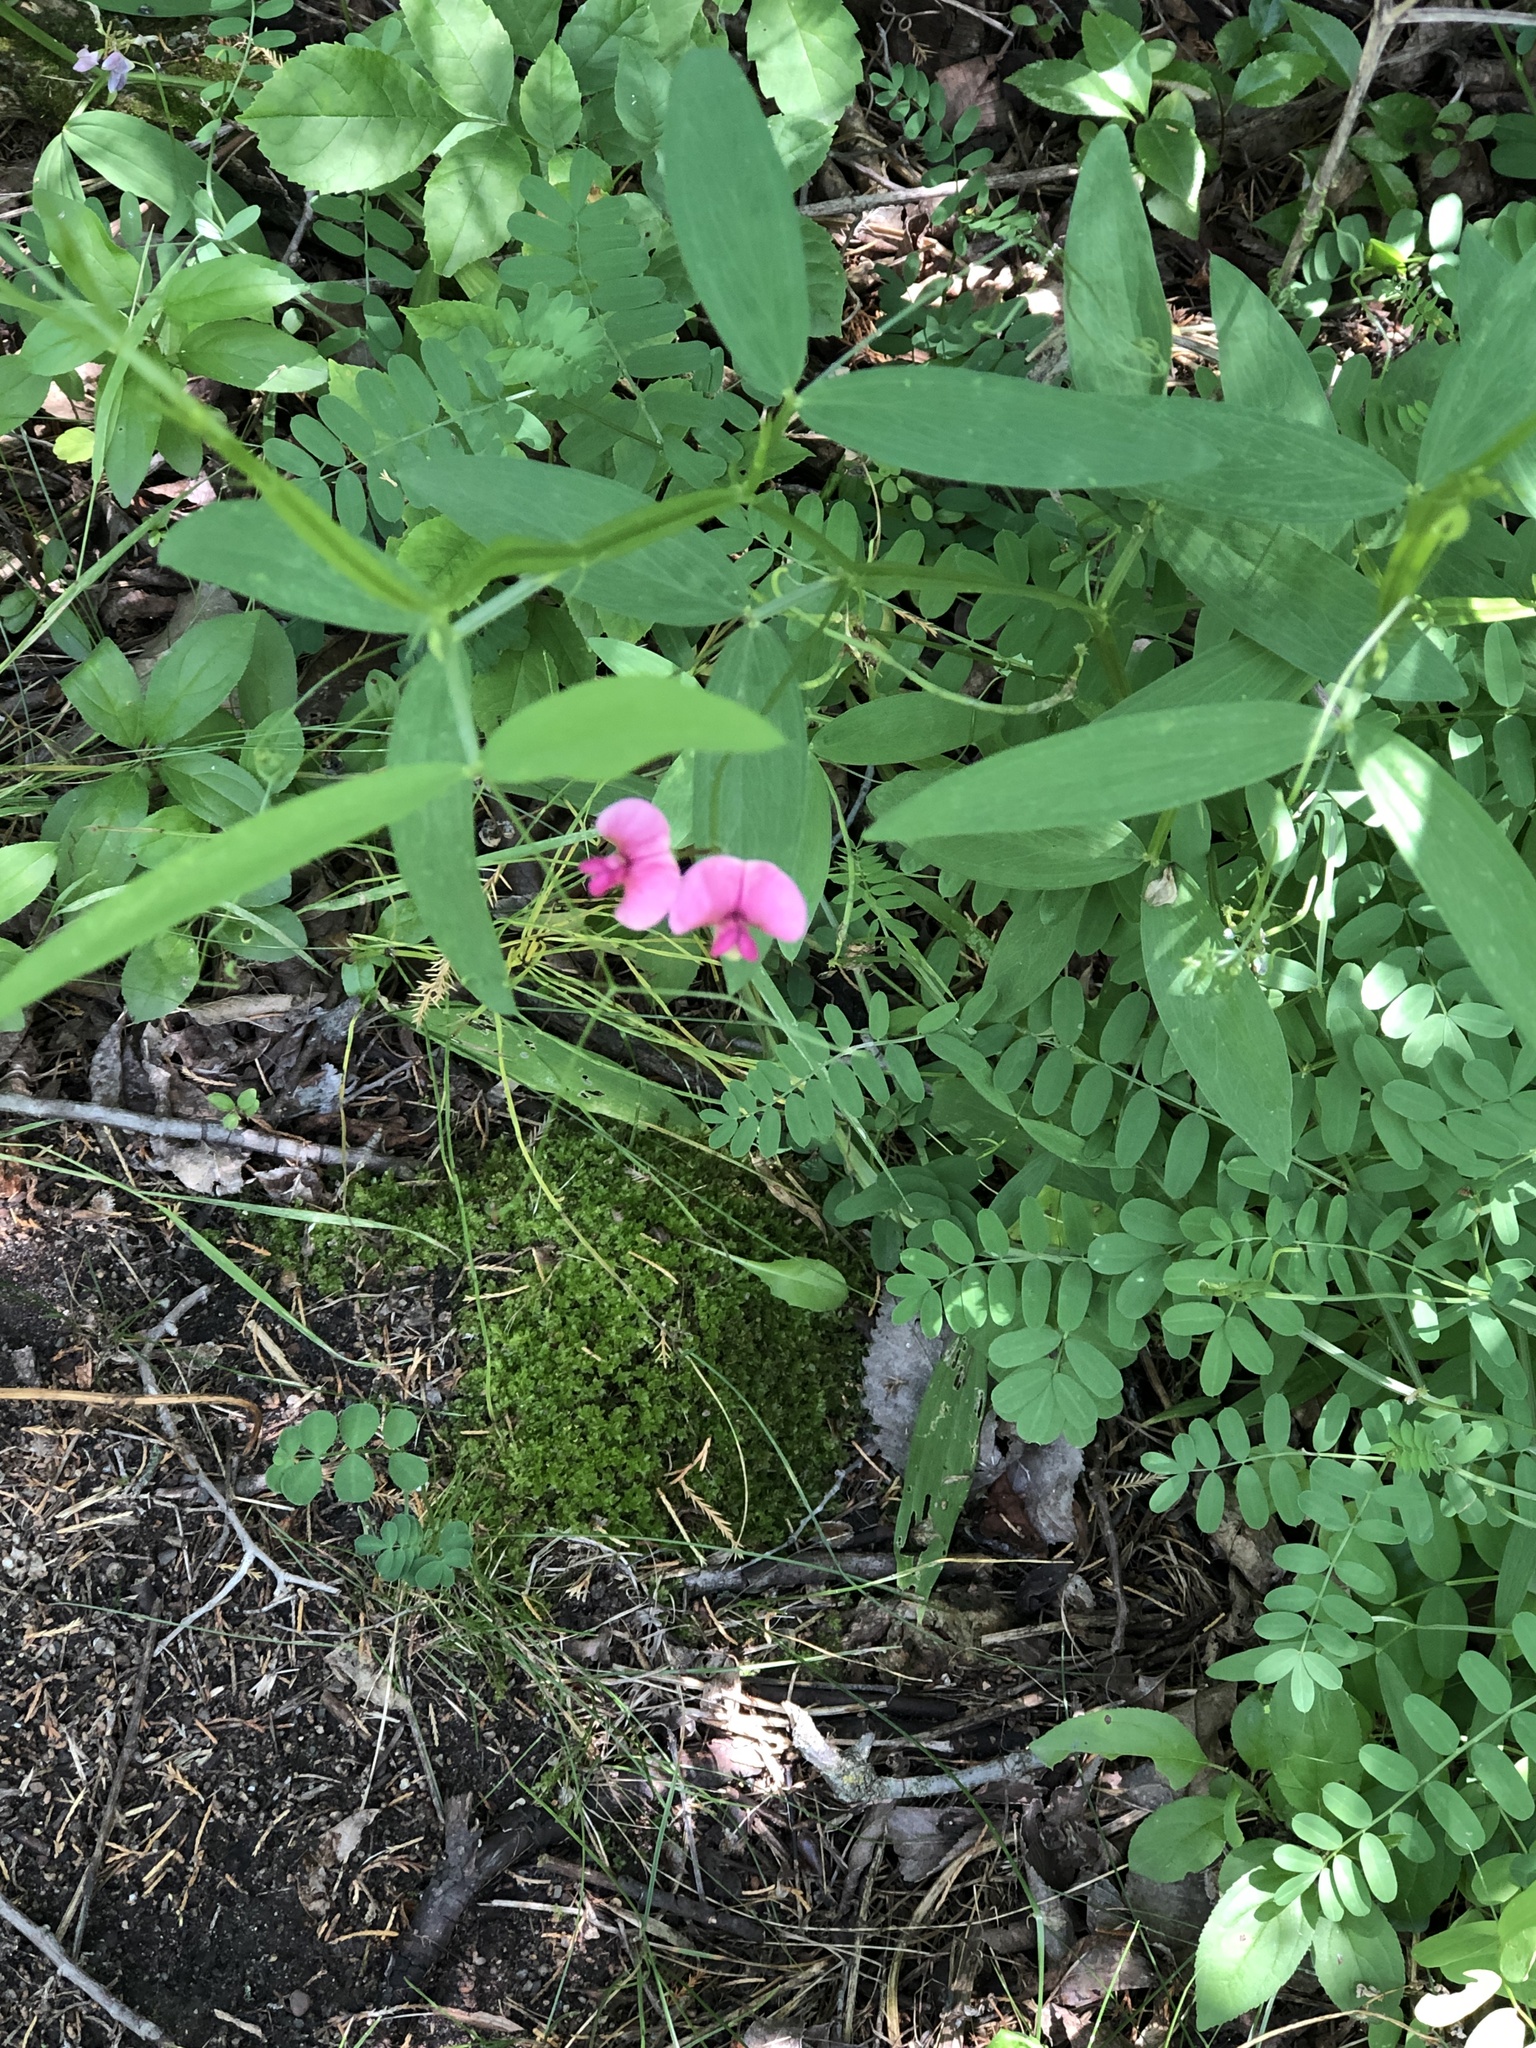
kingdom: Plantae
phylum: Tracheophyta
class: Magnoliopsida
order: Fabales
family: Fabaceae
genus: Lathyrus
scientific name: Lathyrus sylvestris
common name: Flat pea
